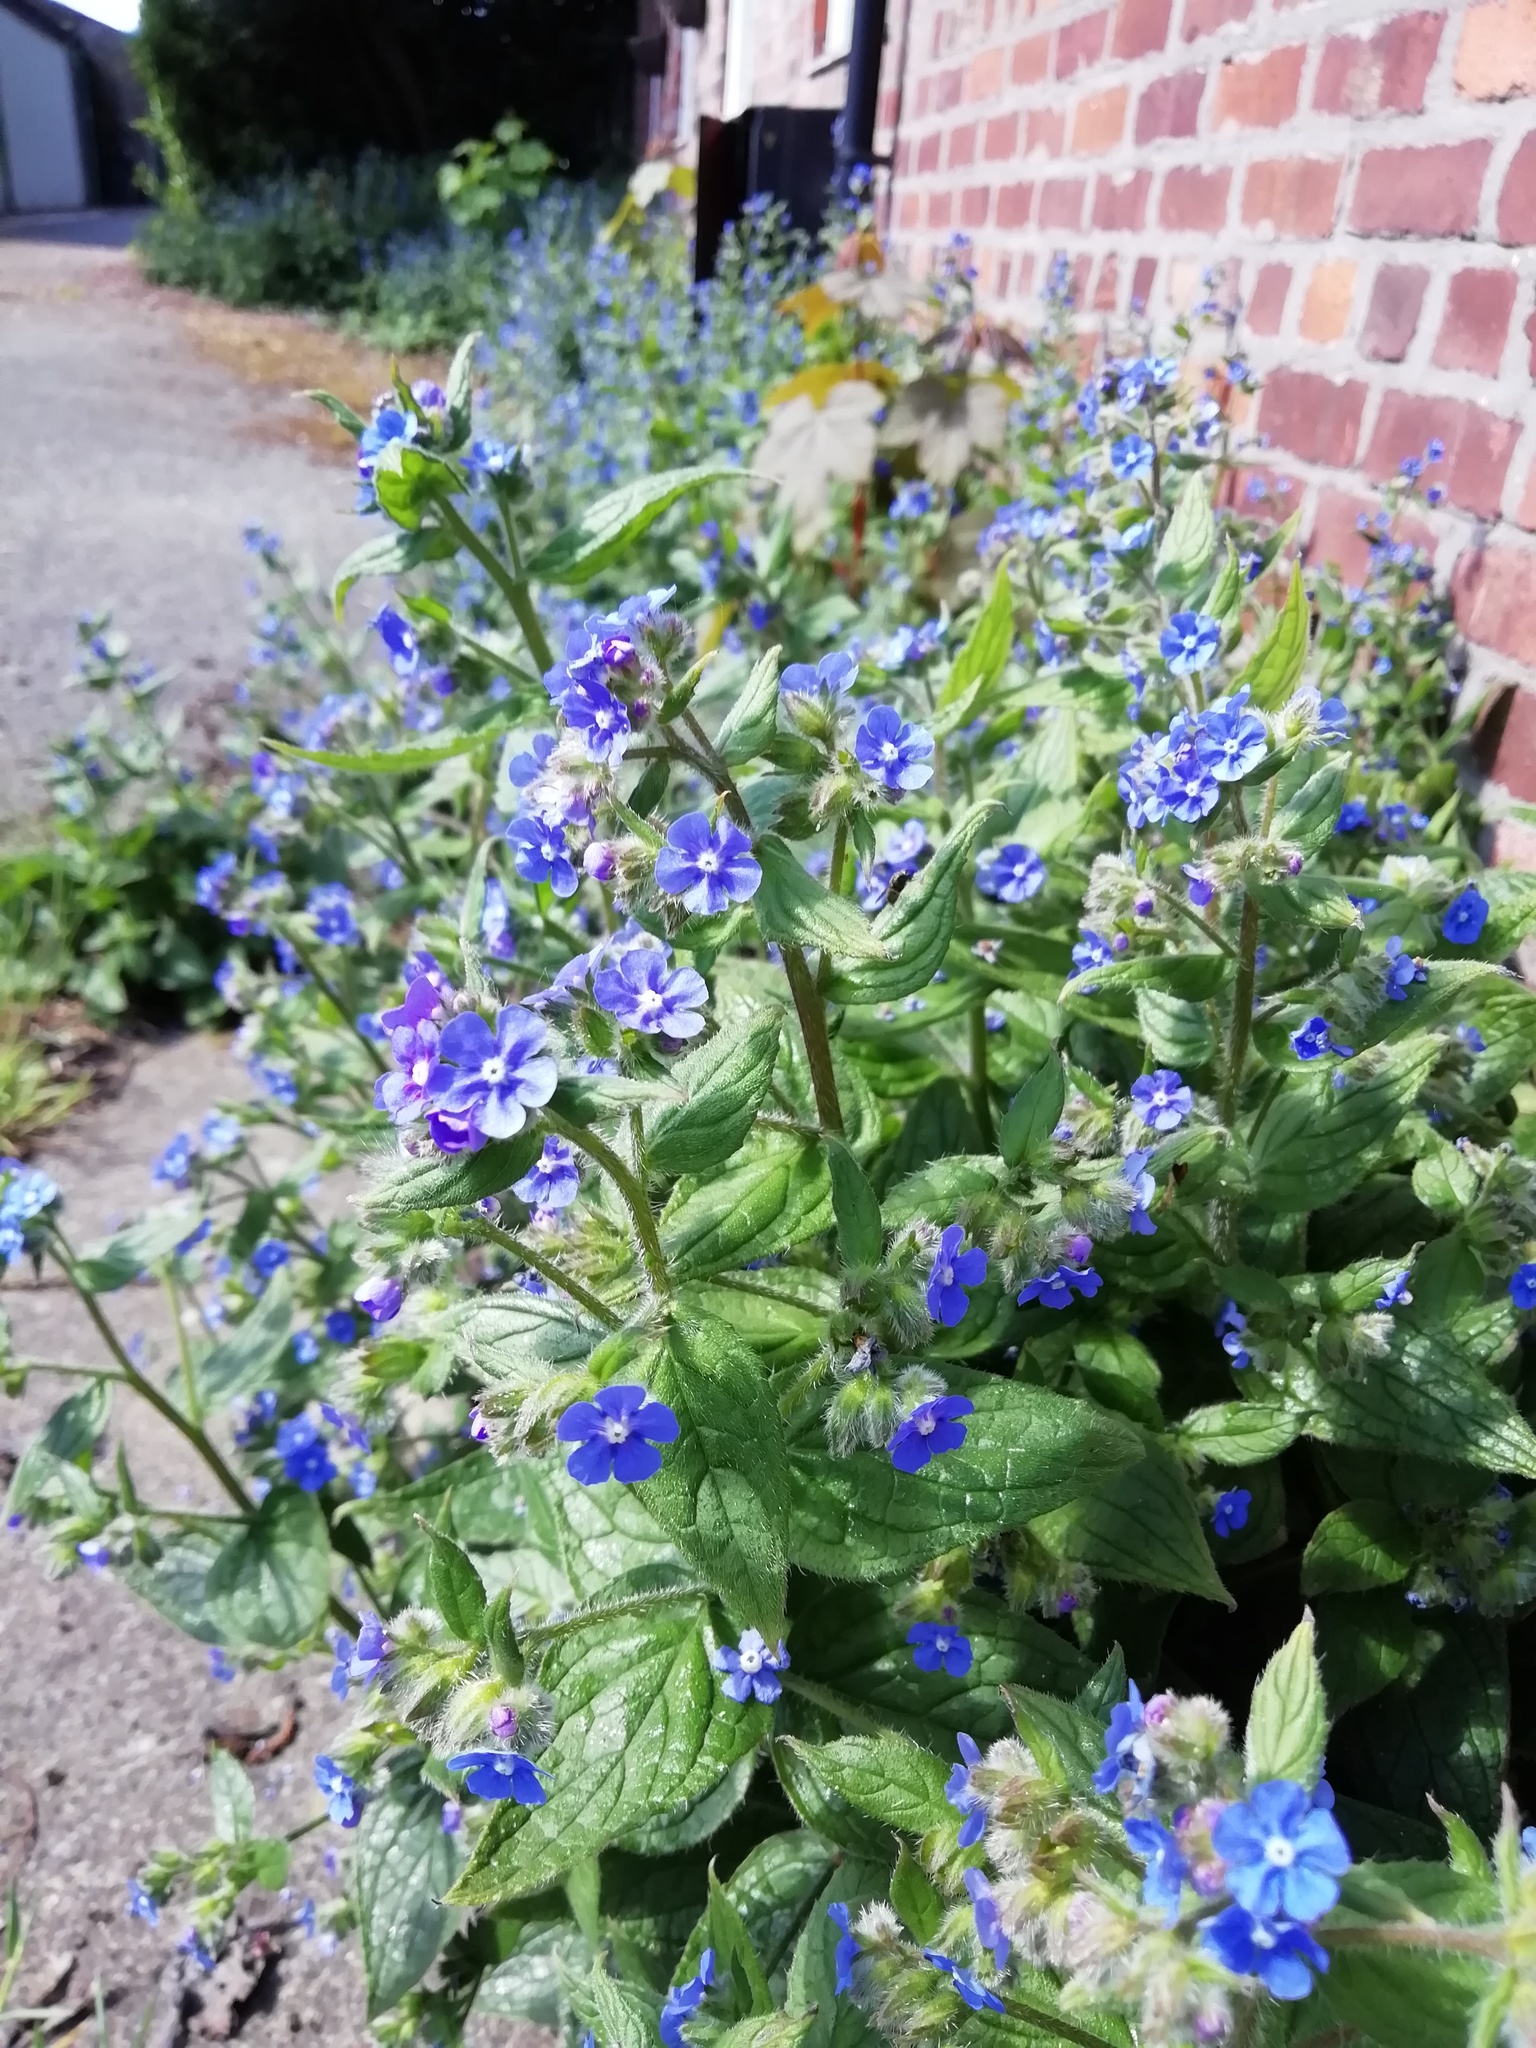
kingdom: Plantae
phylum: Tracheophyta
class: Magnoliopsida
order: Boraginales
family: Boraginaceae
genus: Pentaglottis
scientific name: Pentaglottis sempervirens
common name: Green alkanet
